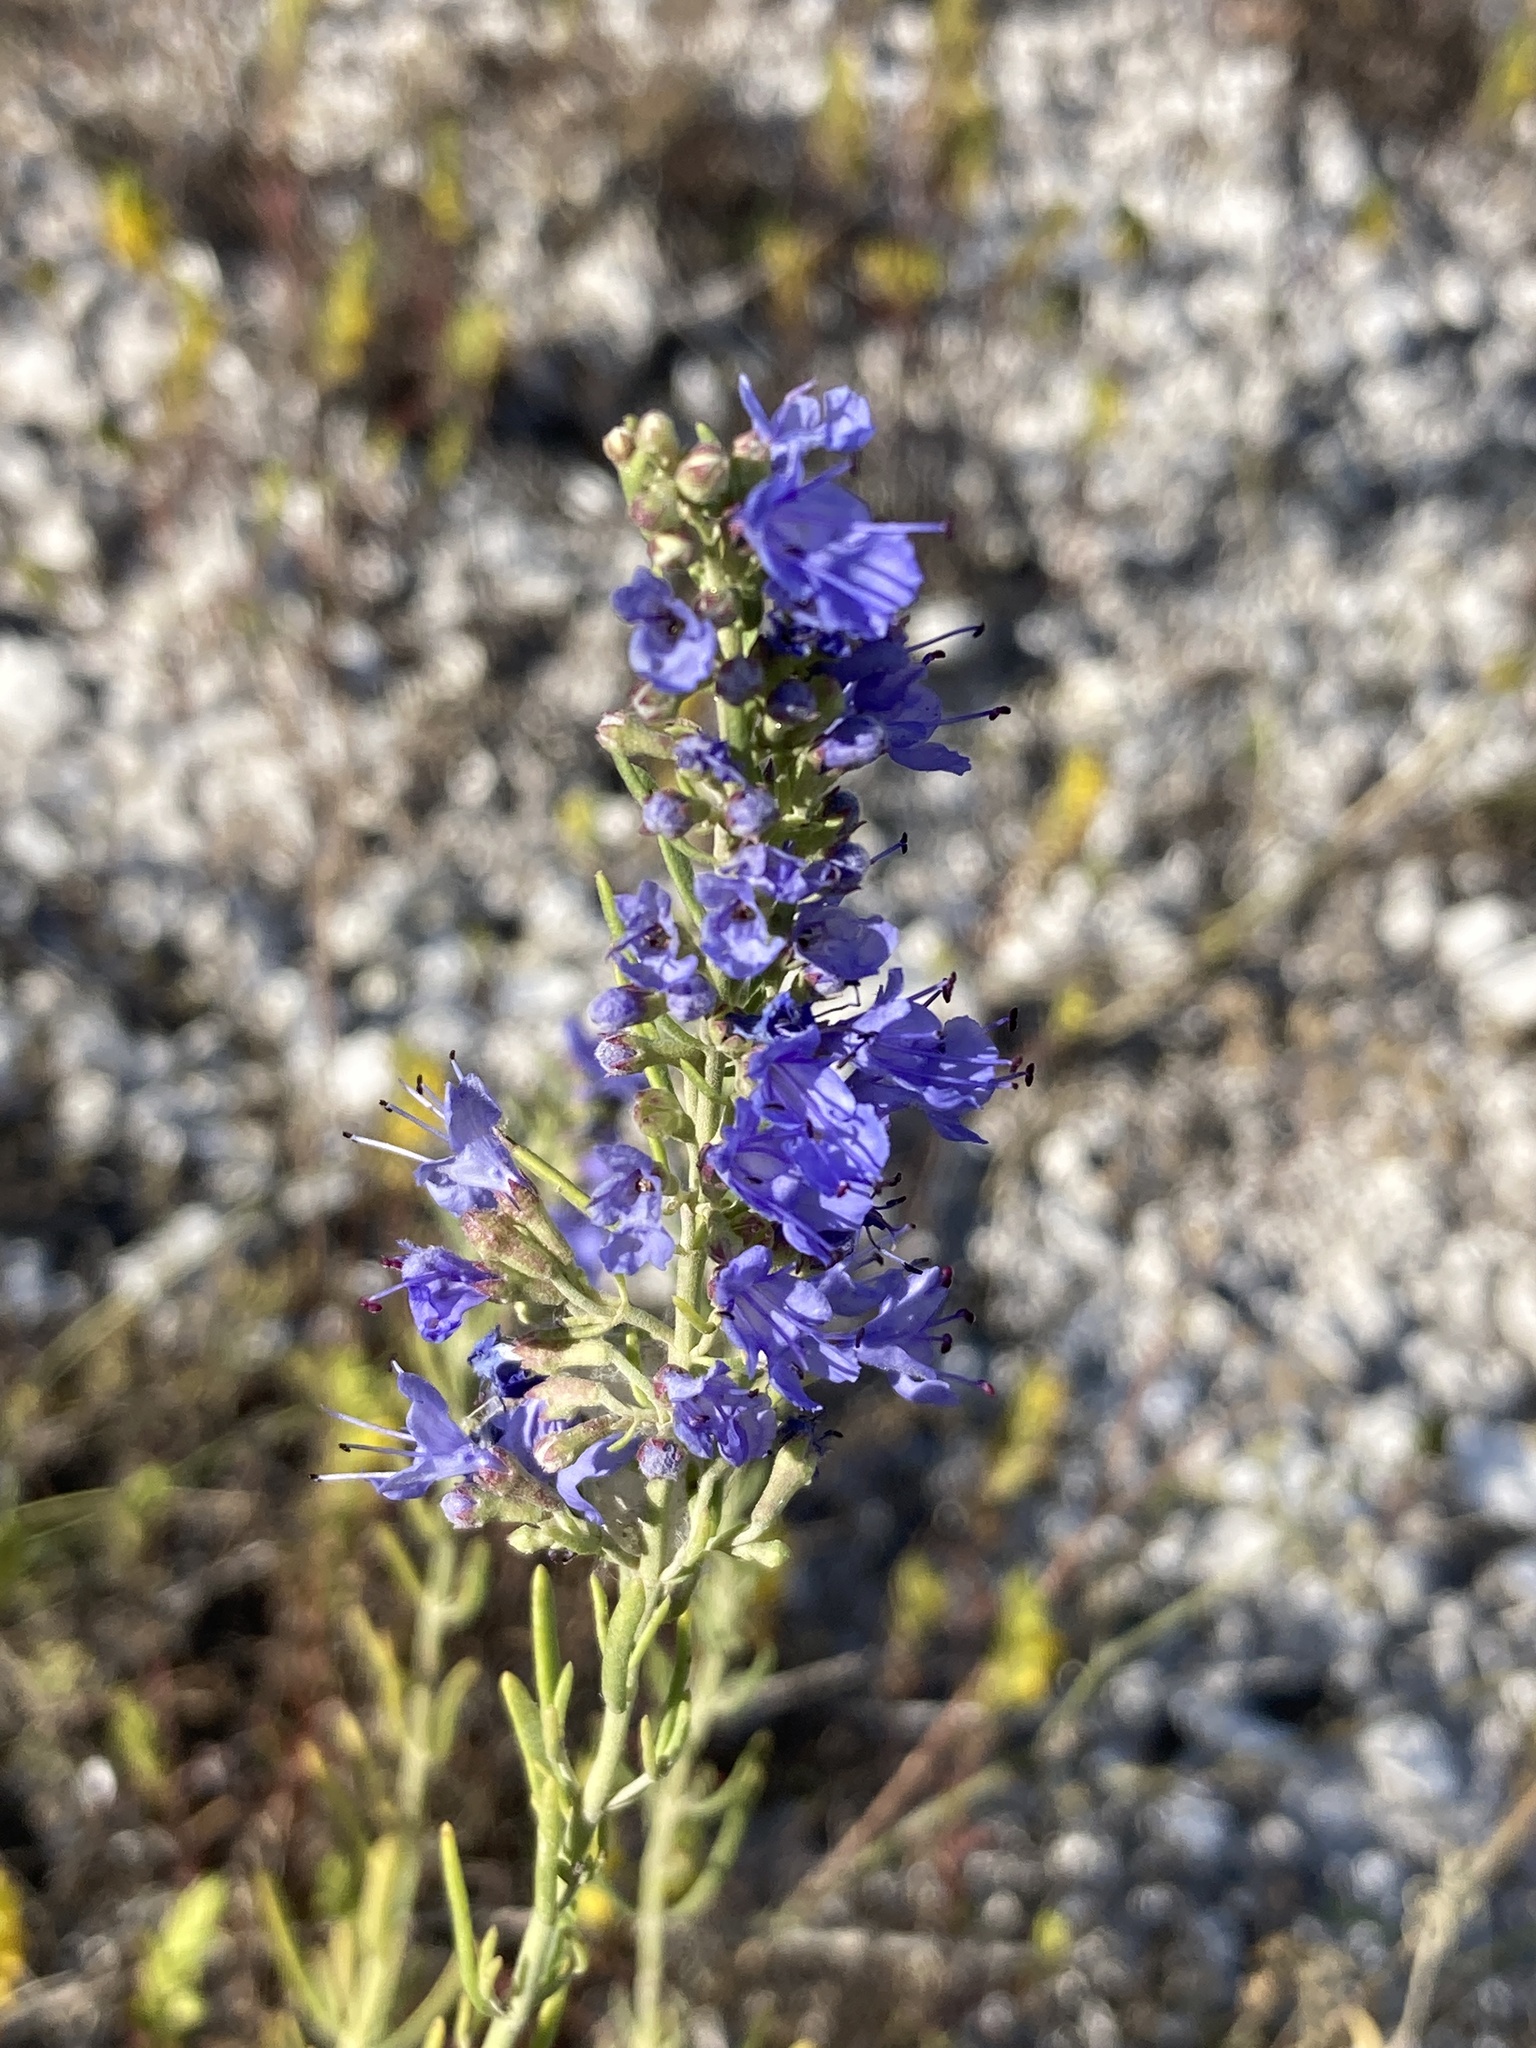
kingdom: Plantae
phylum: Tracheophyta
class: Magnoliopsida
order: Lamiales
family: Lamiaceae
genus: Hyssopus
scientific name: Hyssopus officinalis
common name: Hyssop
